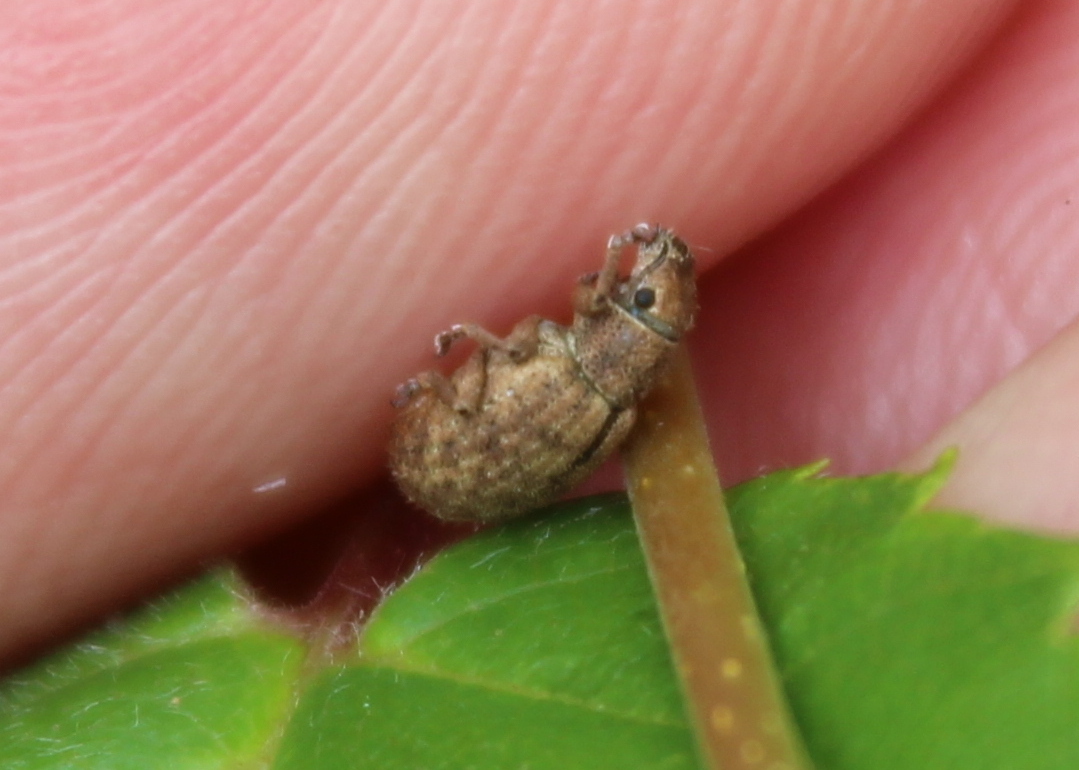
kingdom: Animalia
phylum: Arthropoda
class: Insecta
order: Coleoptera
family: Curculionidae
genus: Strophosoma
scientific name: Strophosoma melanogrammum
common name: Weevil
